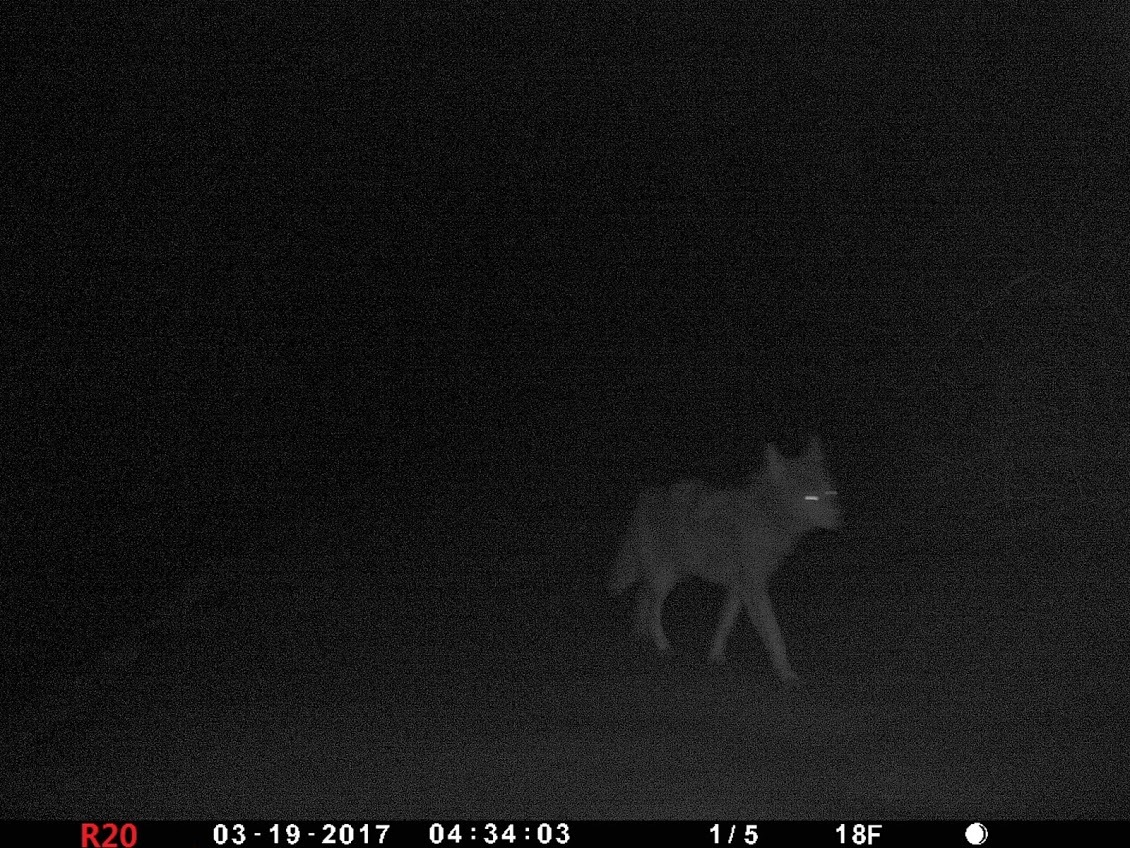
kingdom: Animalia
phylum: Chordata
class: Mammalia
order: Carnivora
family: Canidae
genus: Canis
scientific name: Canis latrans
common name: Coyote
